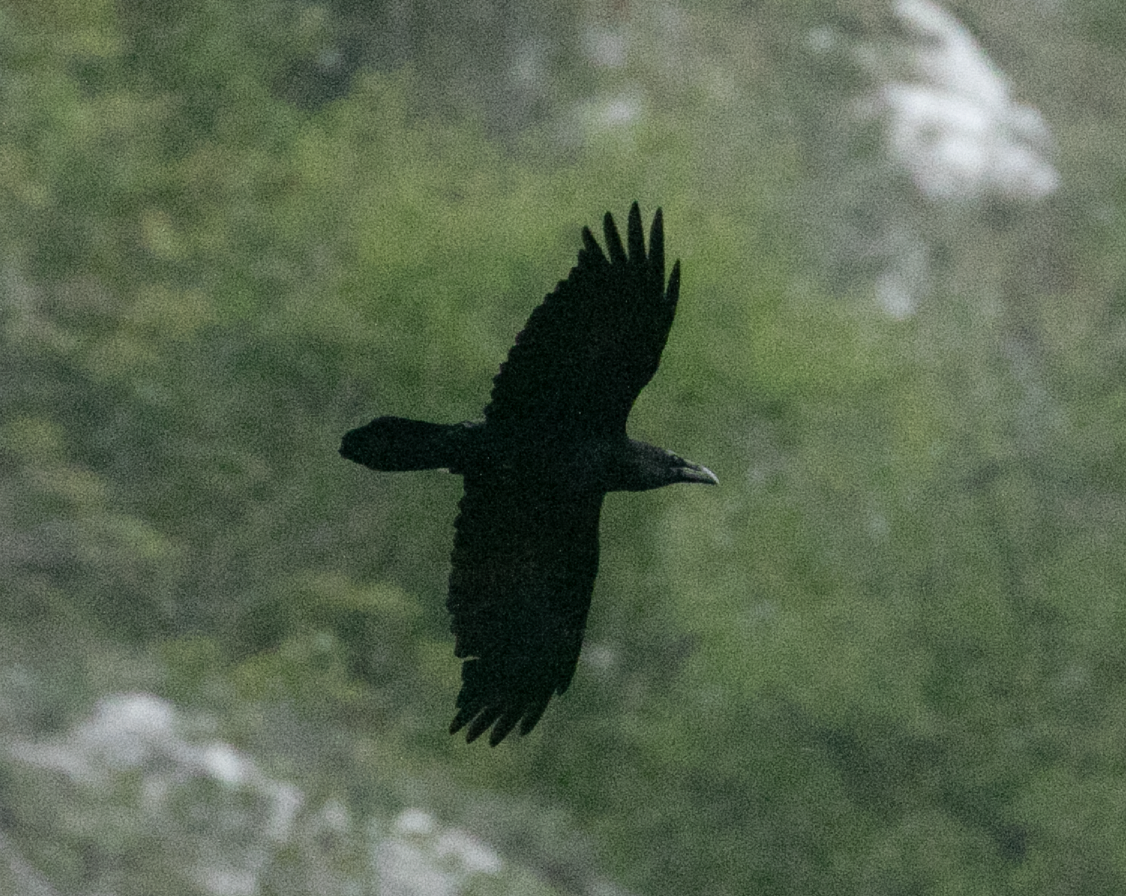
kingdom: Animalia
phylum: Chordata
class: Aves
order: Passeriformes
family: Corvidae
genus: Corvus
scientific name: Corvus corax
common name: Common raven
